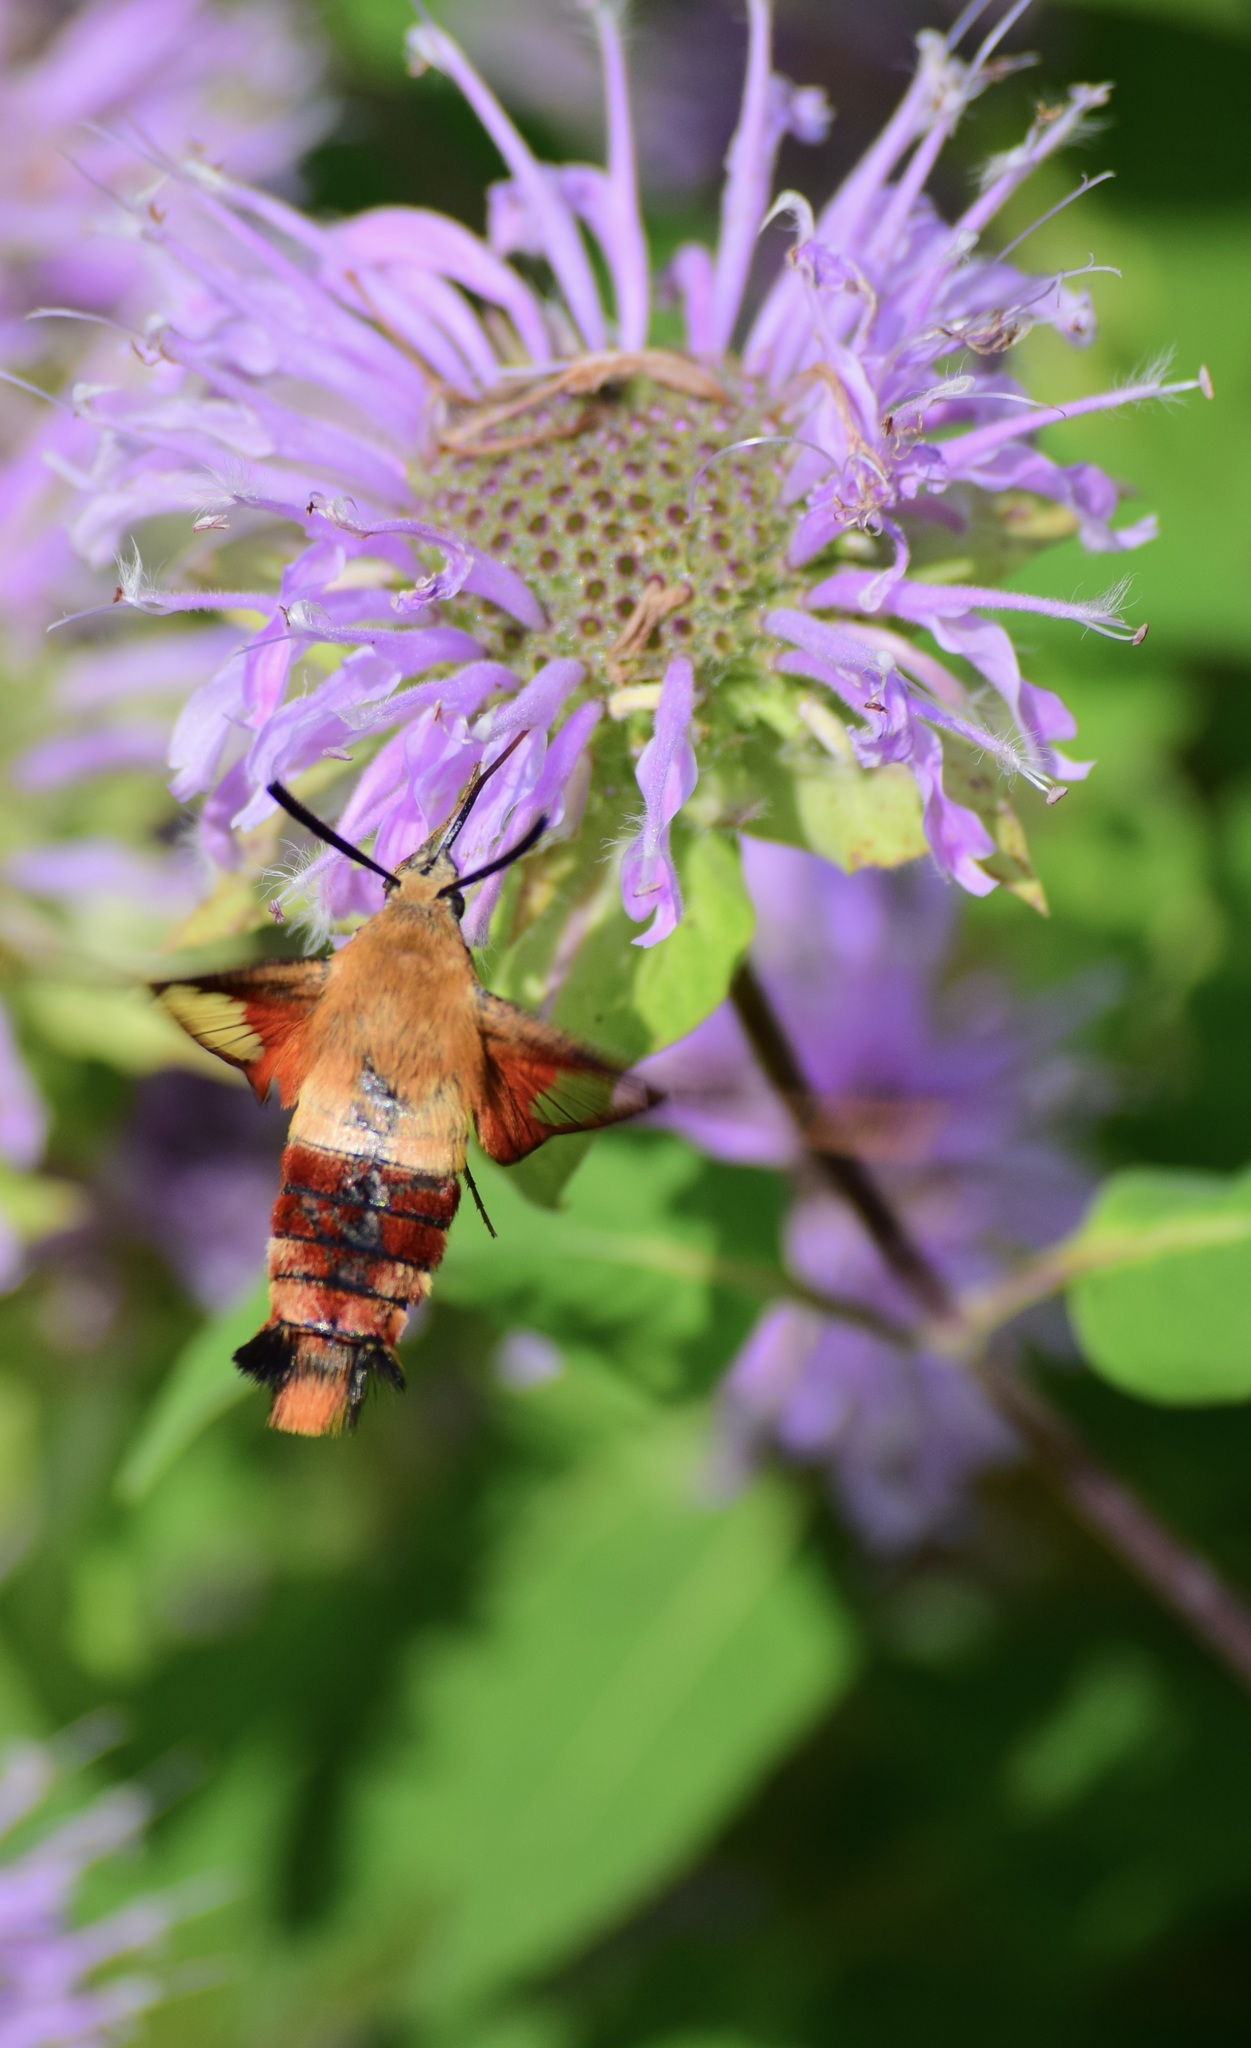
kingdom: Animalia
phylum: Arthropoda
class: Insecta
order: Lepidoptera
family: Sphingidae
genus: Hemaris
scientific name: Hemaris thysbe
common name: Common clear-wing
